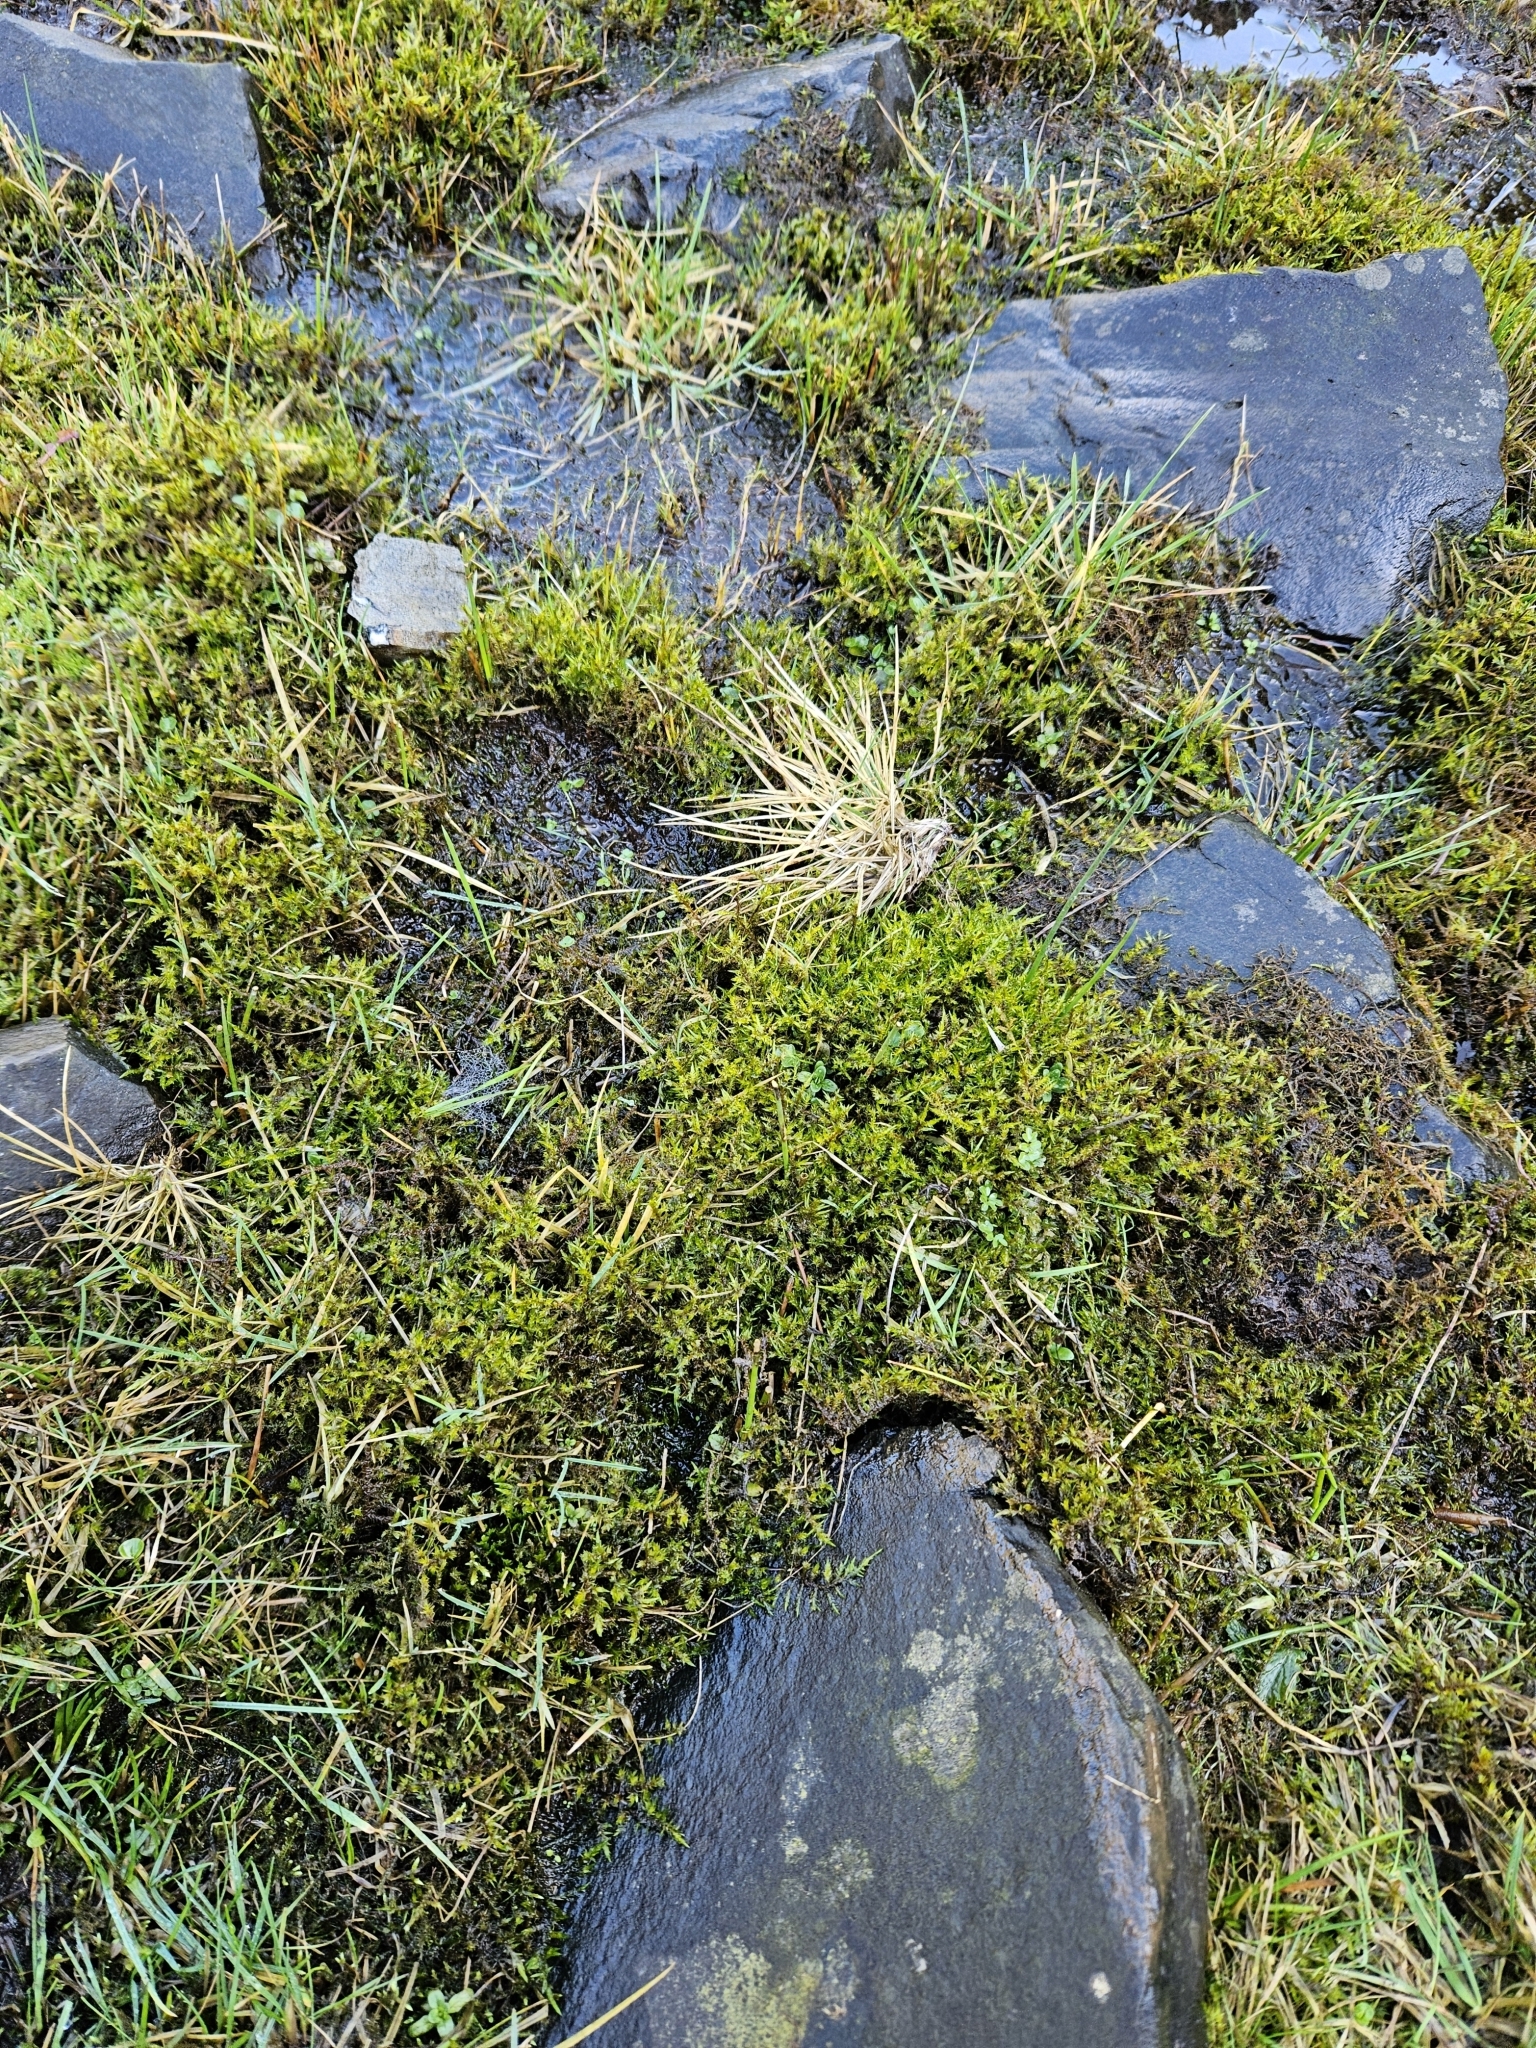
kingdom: Plantae
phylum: Bryophyta
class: Bryopsida
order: Hypnales
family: Pylaisiaceae
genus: Calliergonella
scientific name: Calliergonella cuspidata
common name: Common large wetland moss
